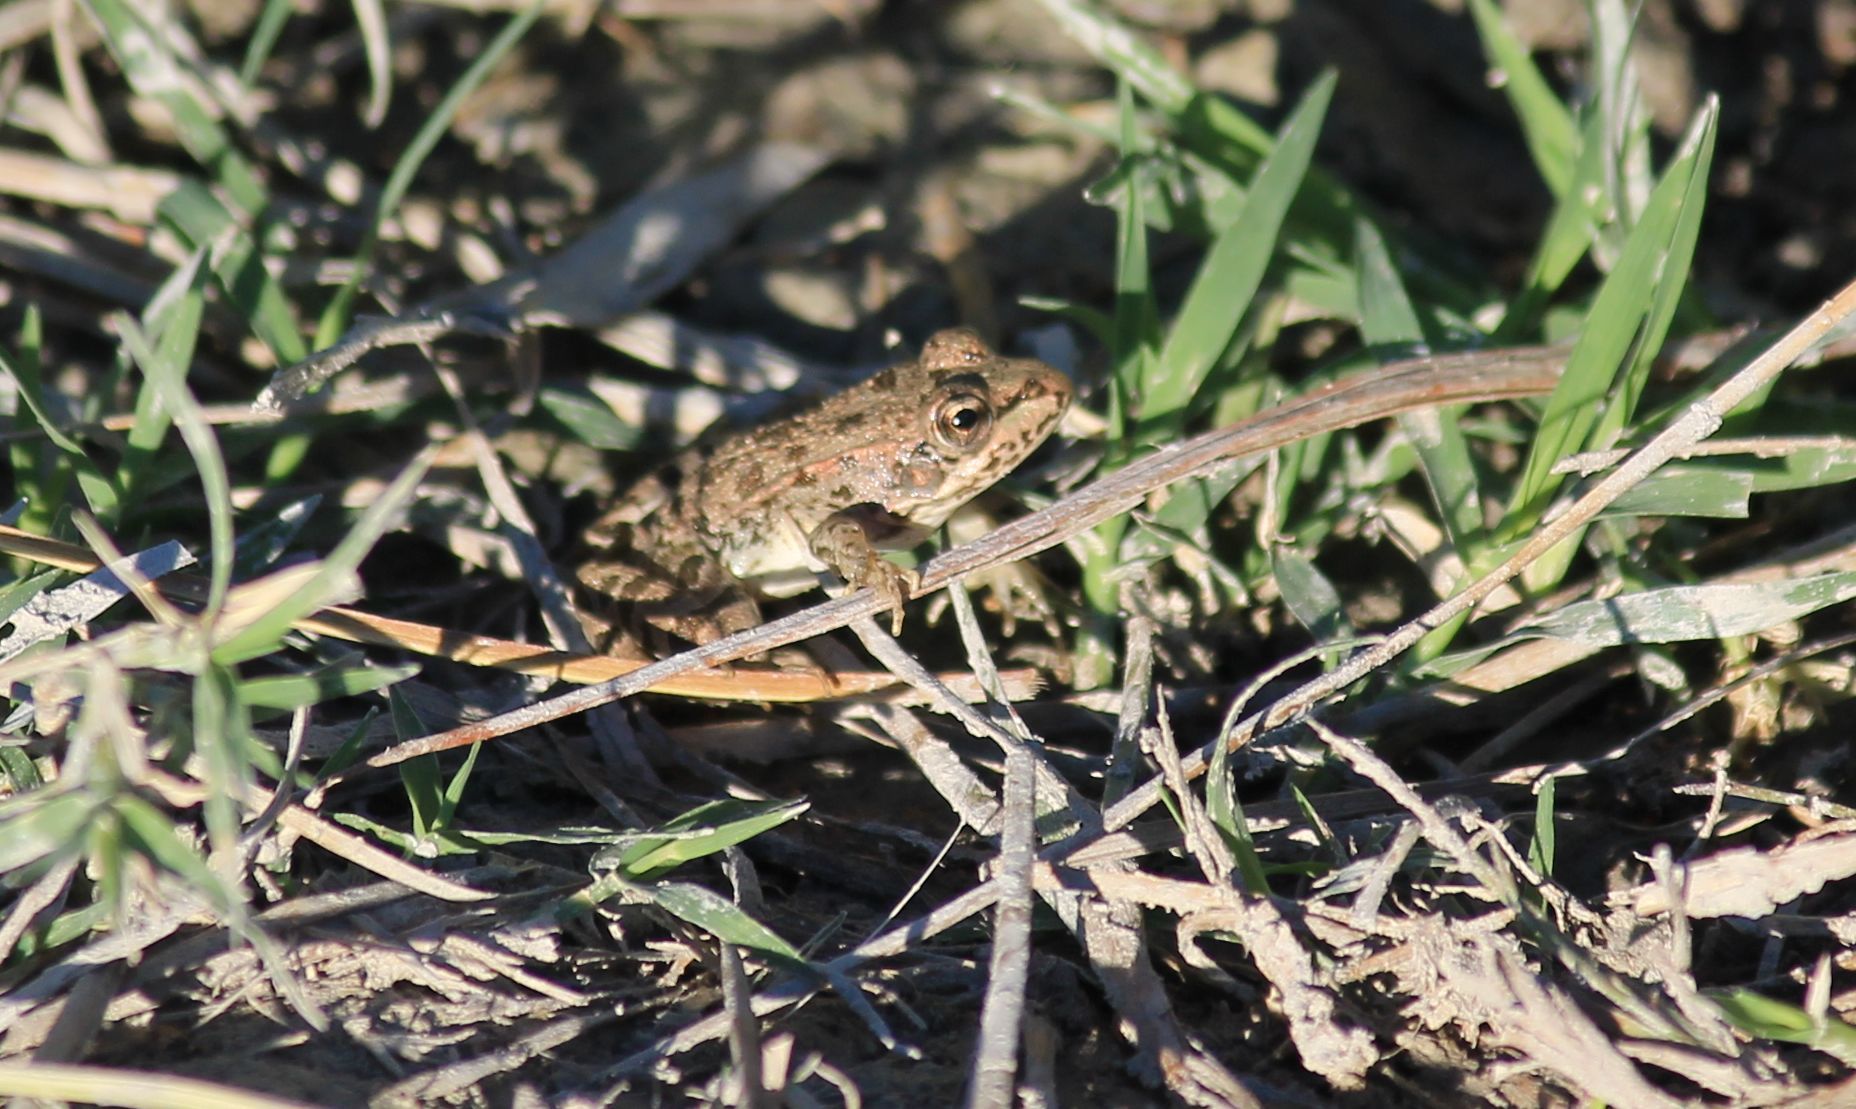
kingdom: Animalia
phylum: Chordata
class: Amphibia
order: Anura
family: Ranidae
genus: Pelophylax
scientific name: Pelophylax ridibundus
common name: Marsh frog
